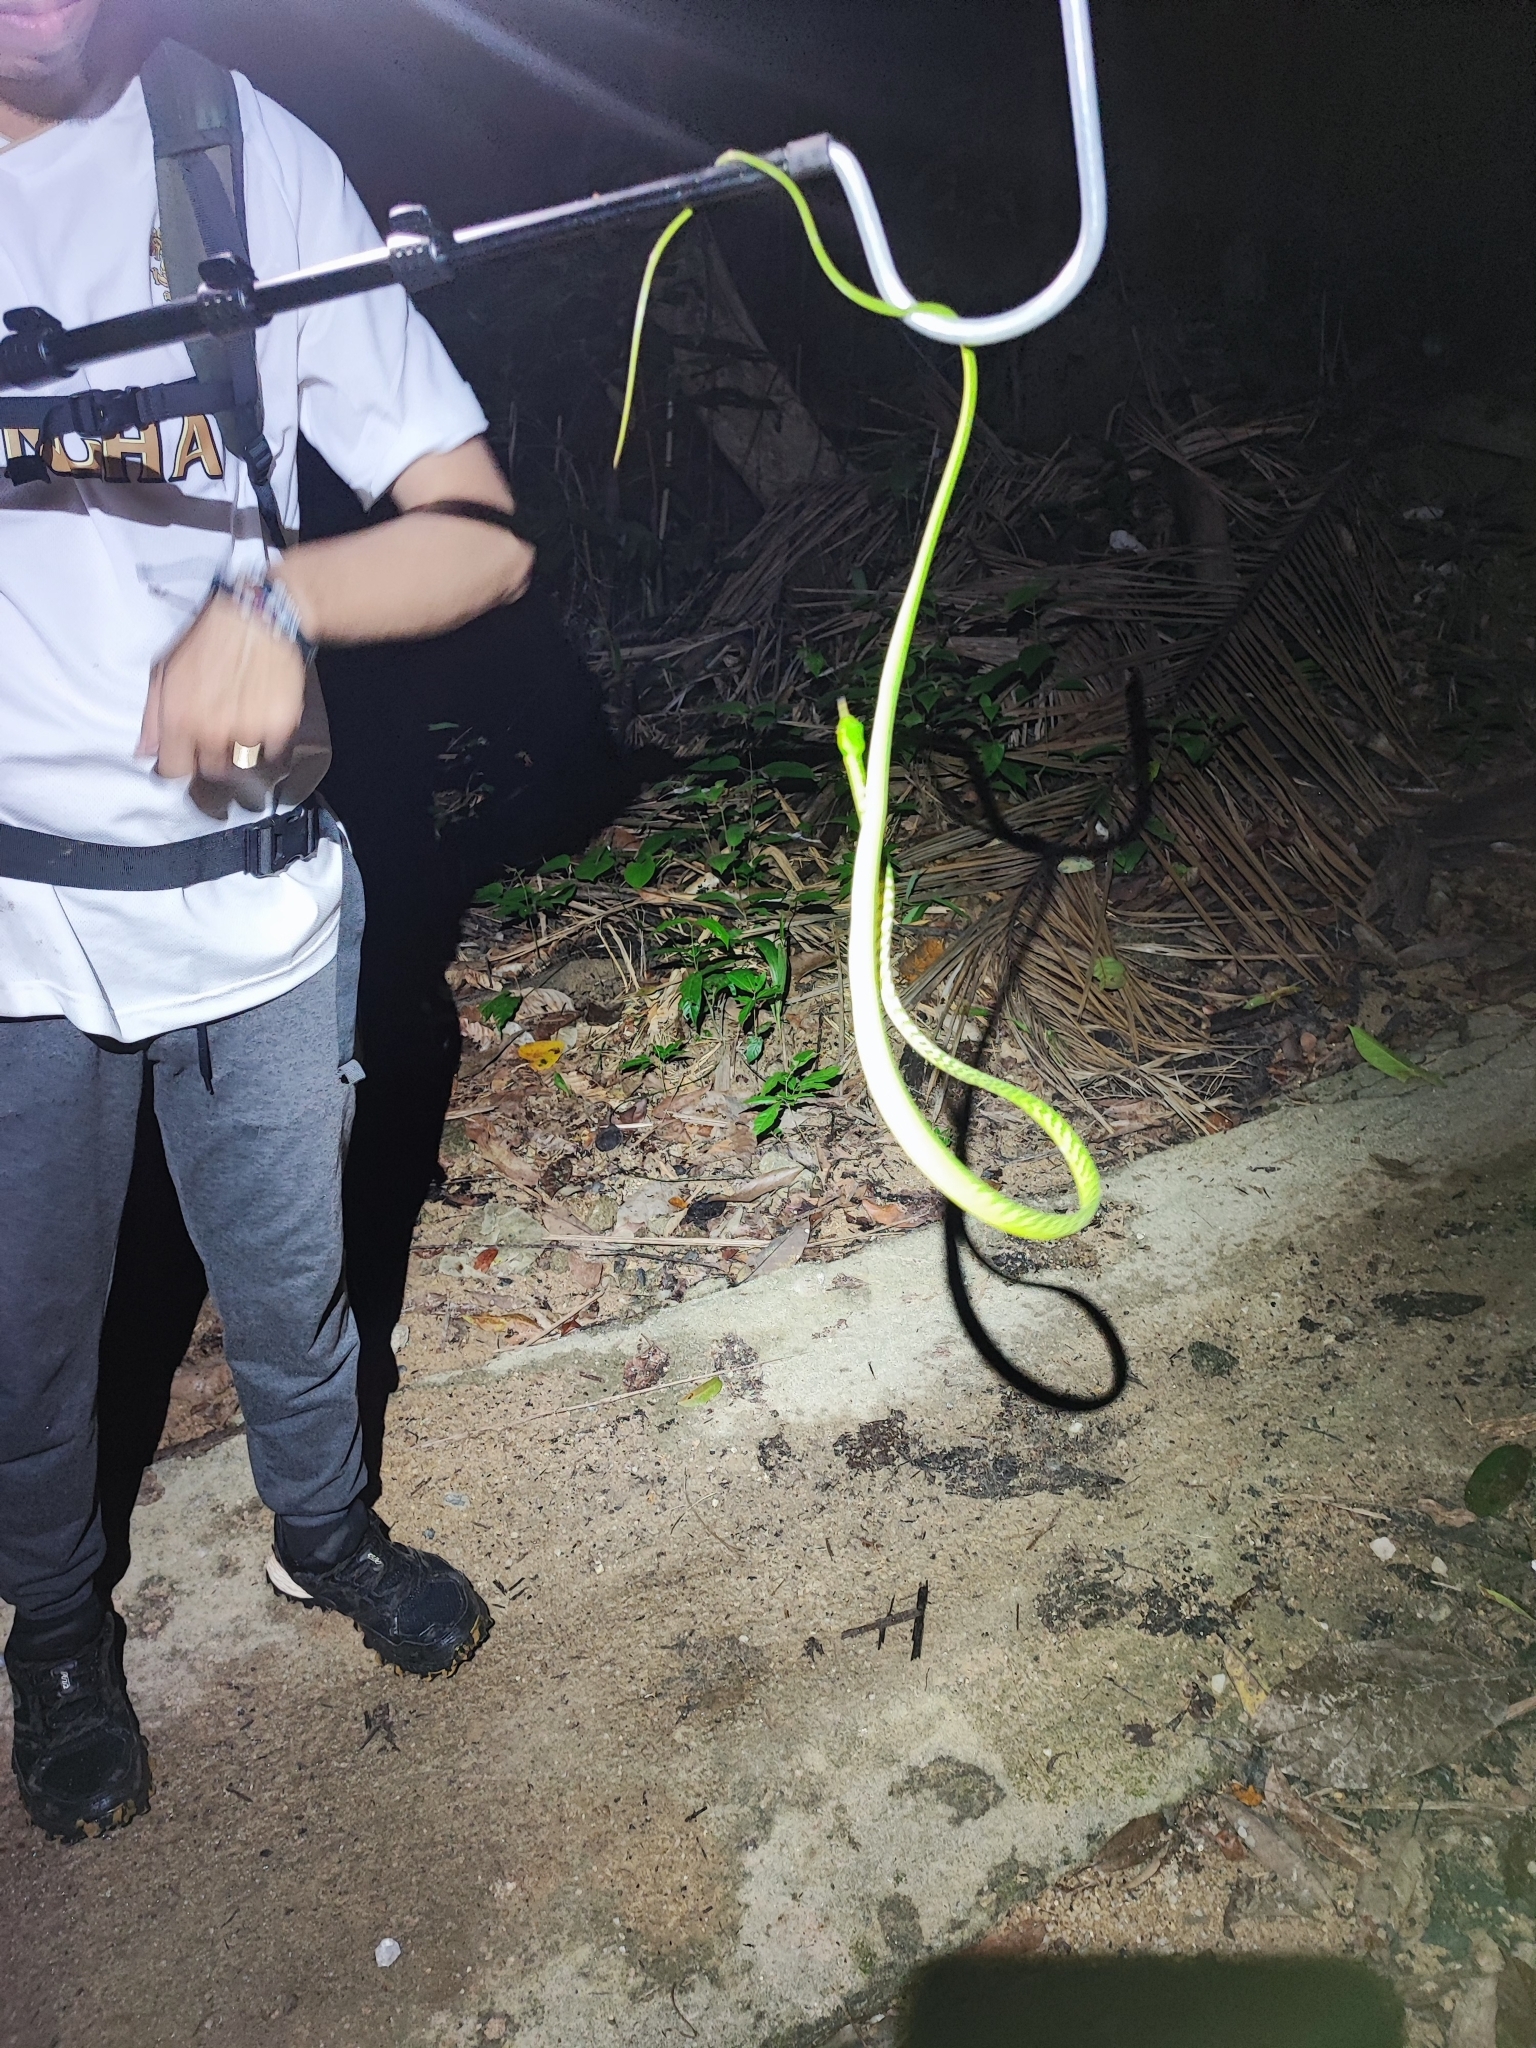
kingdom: Animalia
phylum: Chordata
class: Squamata
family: Colubridae
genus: Ahaetulla
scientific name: Ahaetulla mycterizans
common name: Malayan whip snake
